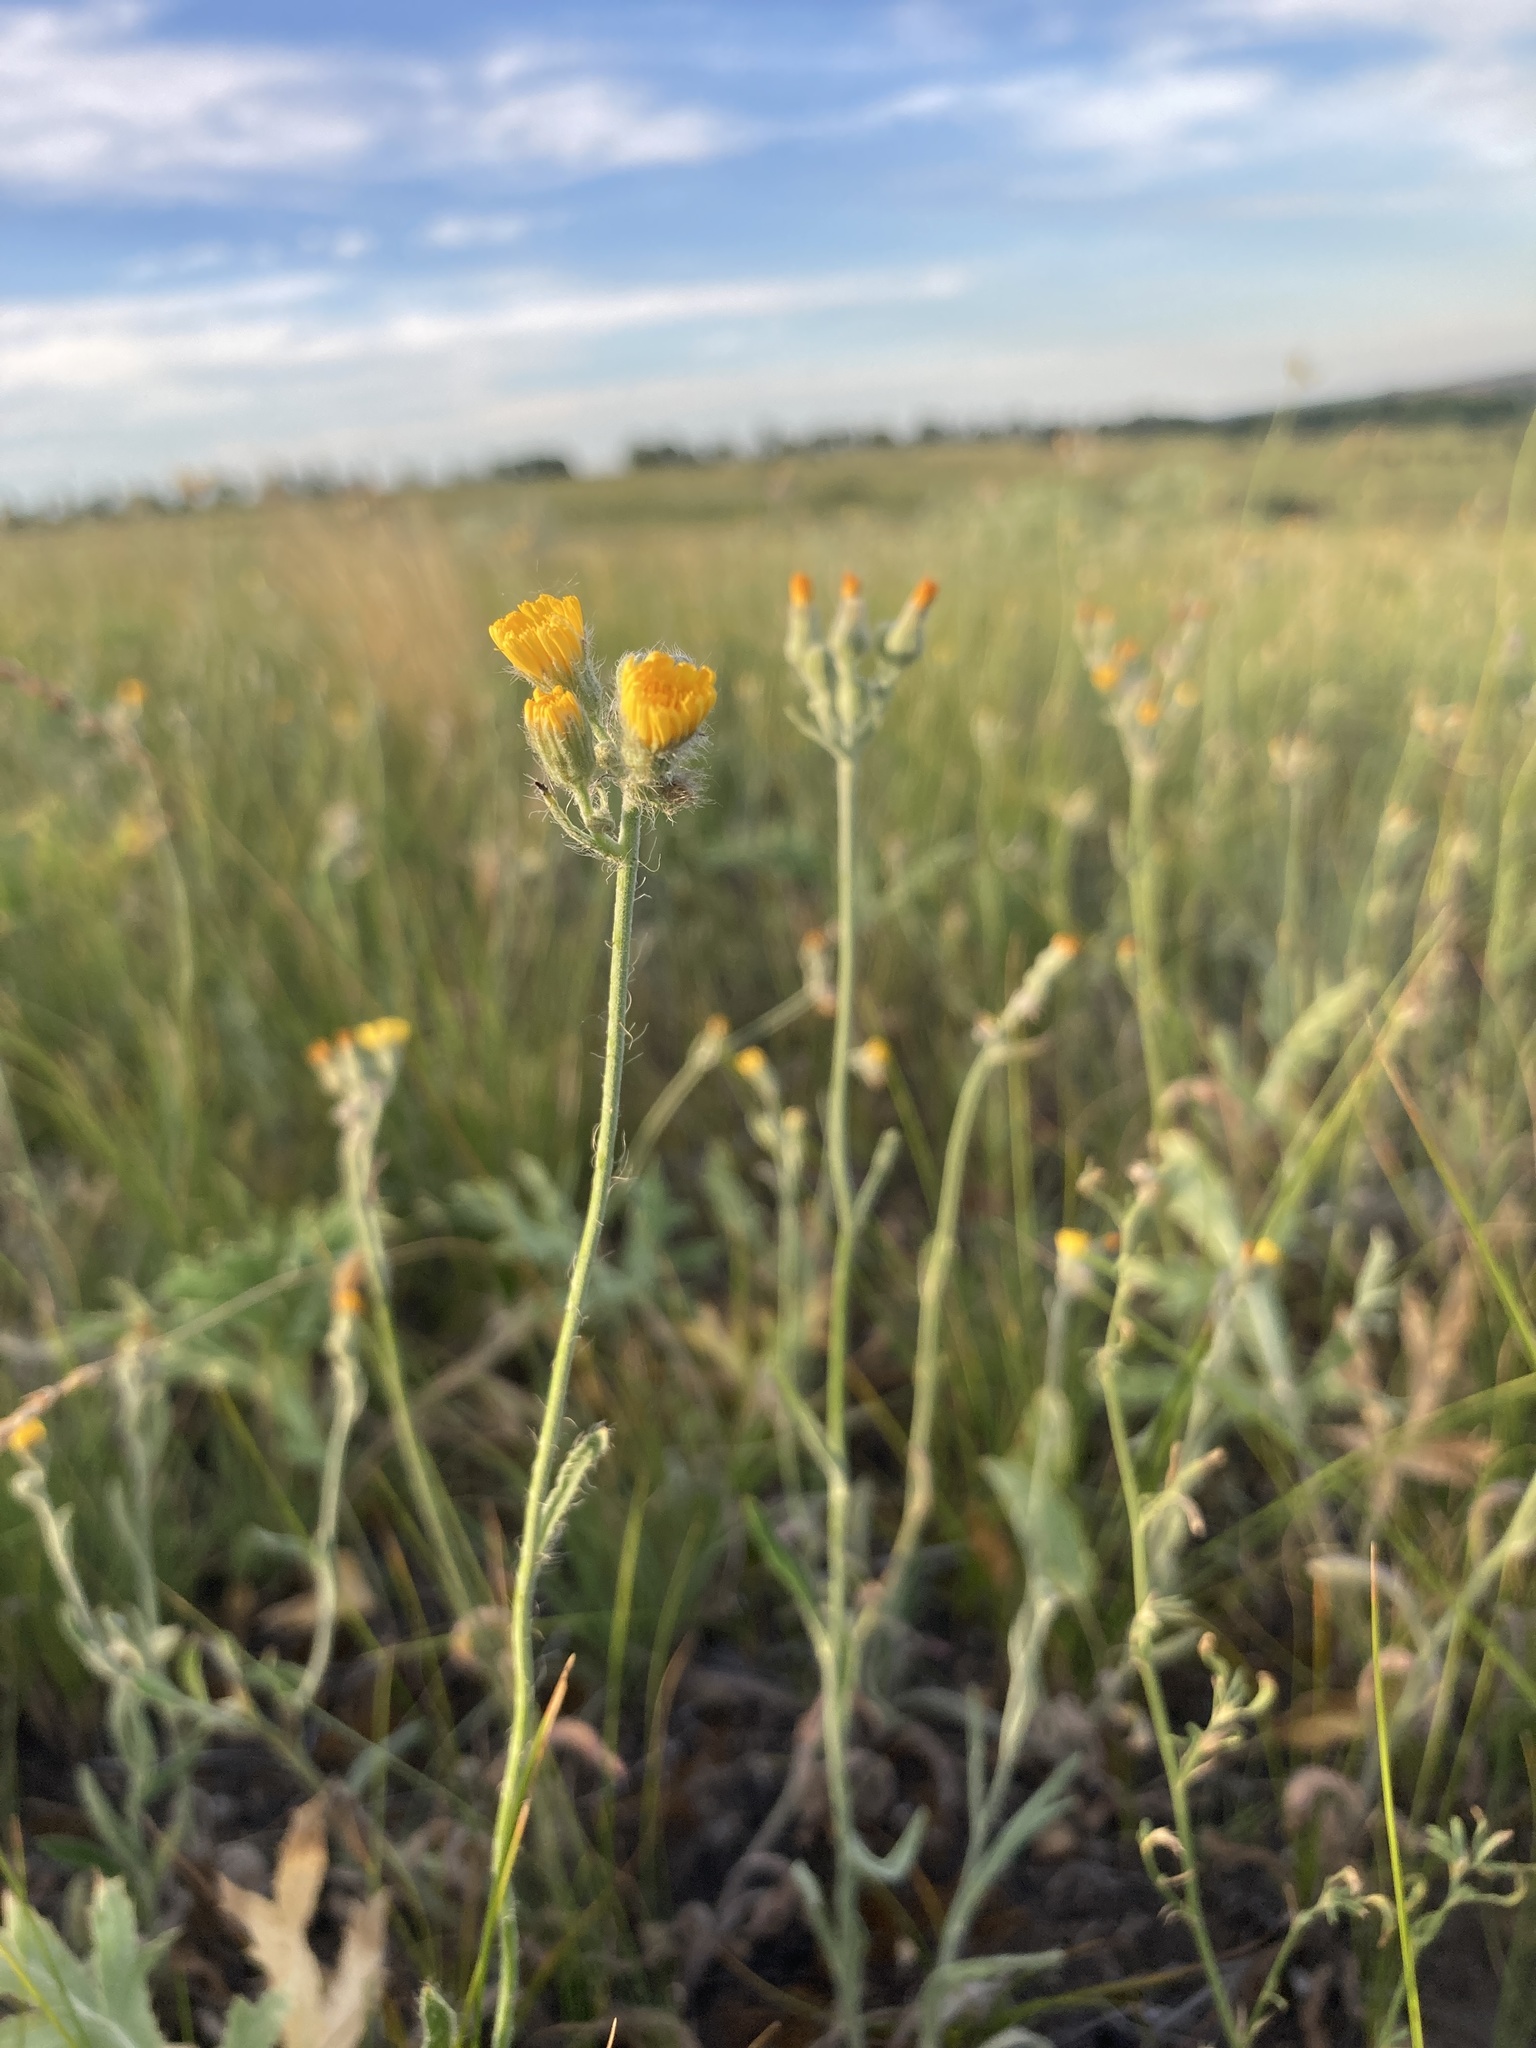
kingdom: Plantae
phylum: Tracheophyta
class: Magnoliopsida
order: Asterales
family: Asteraceae
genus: Pilosella
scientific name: Pilosella echioides
